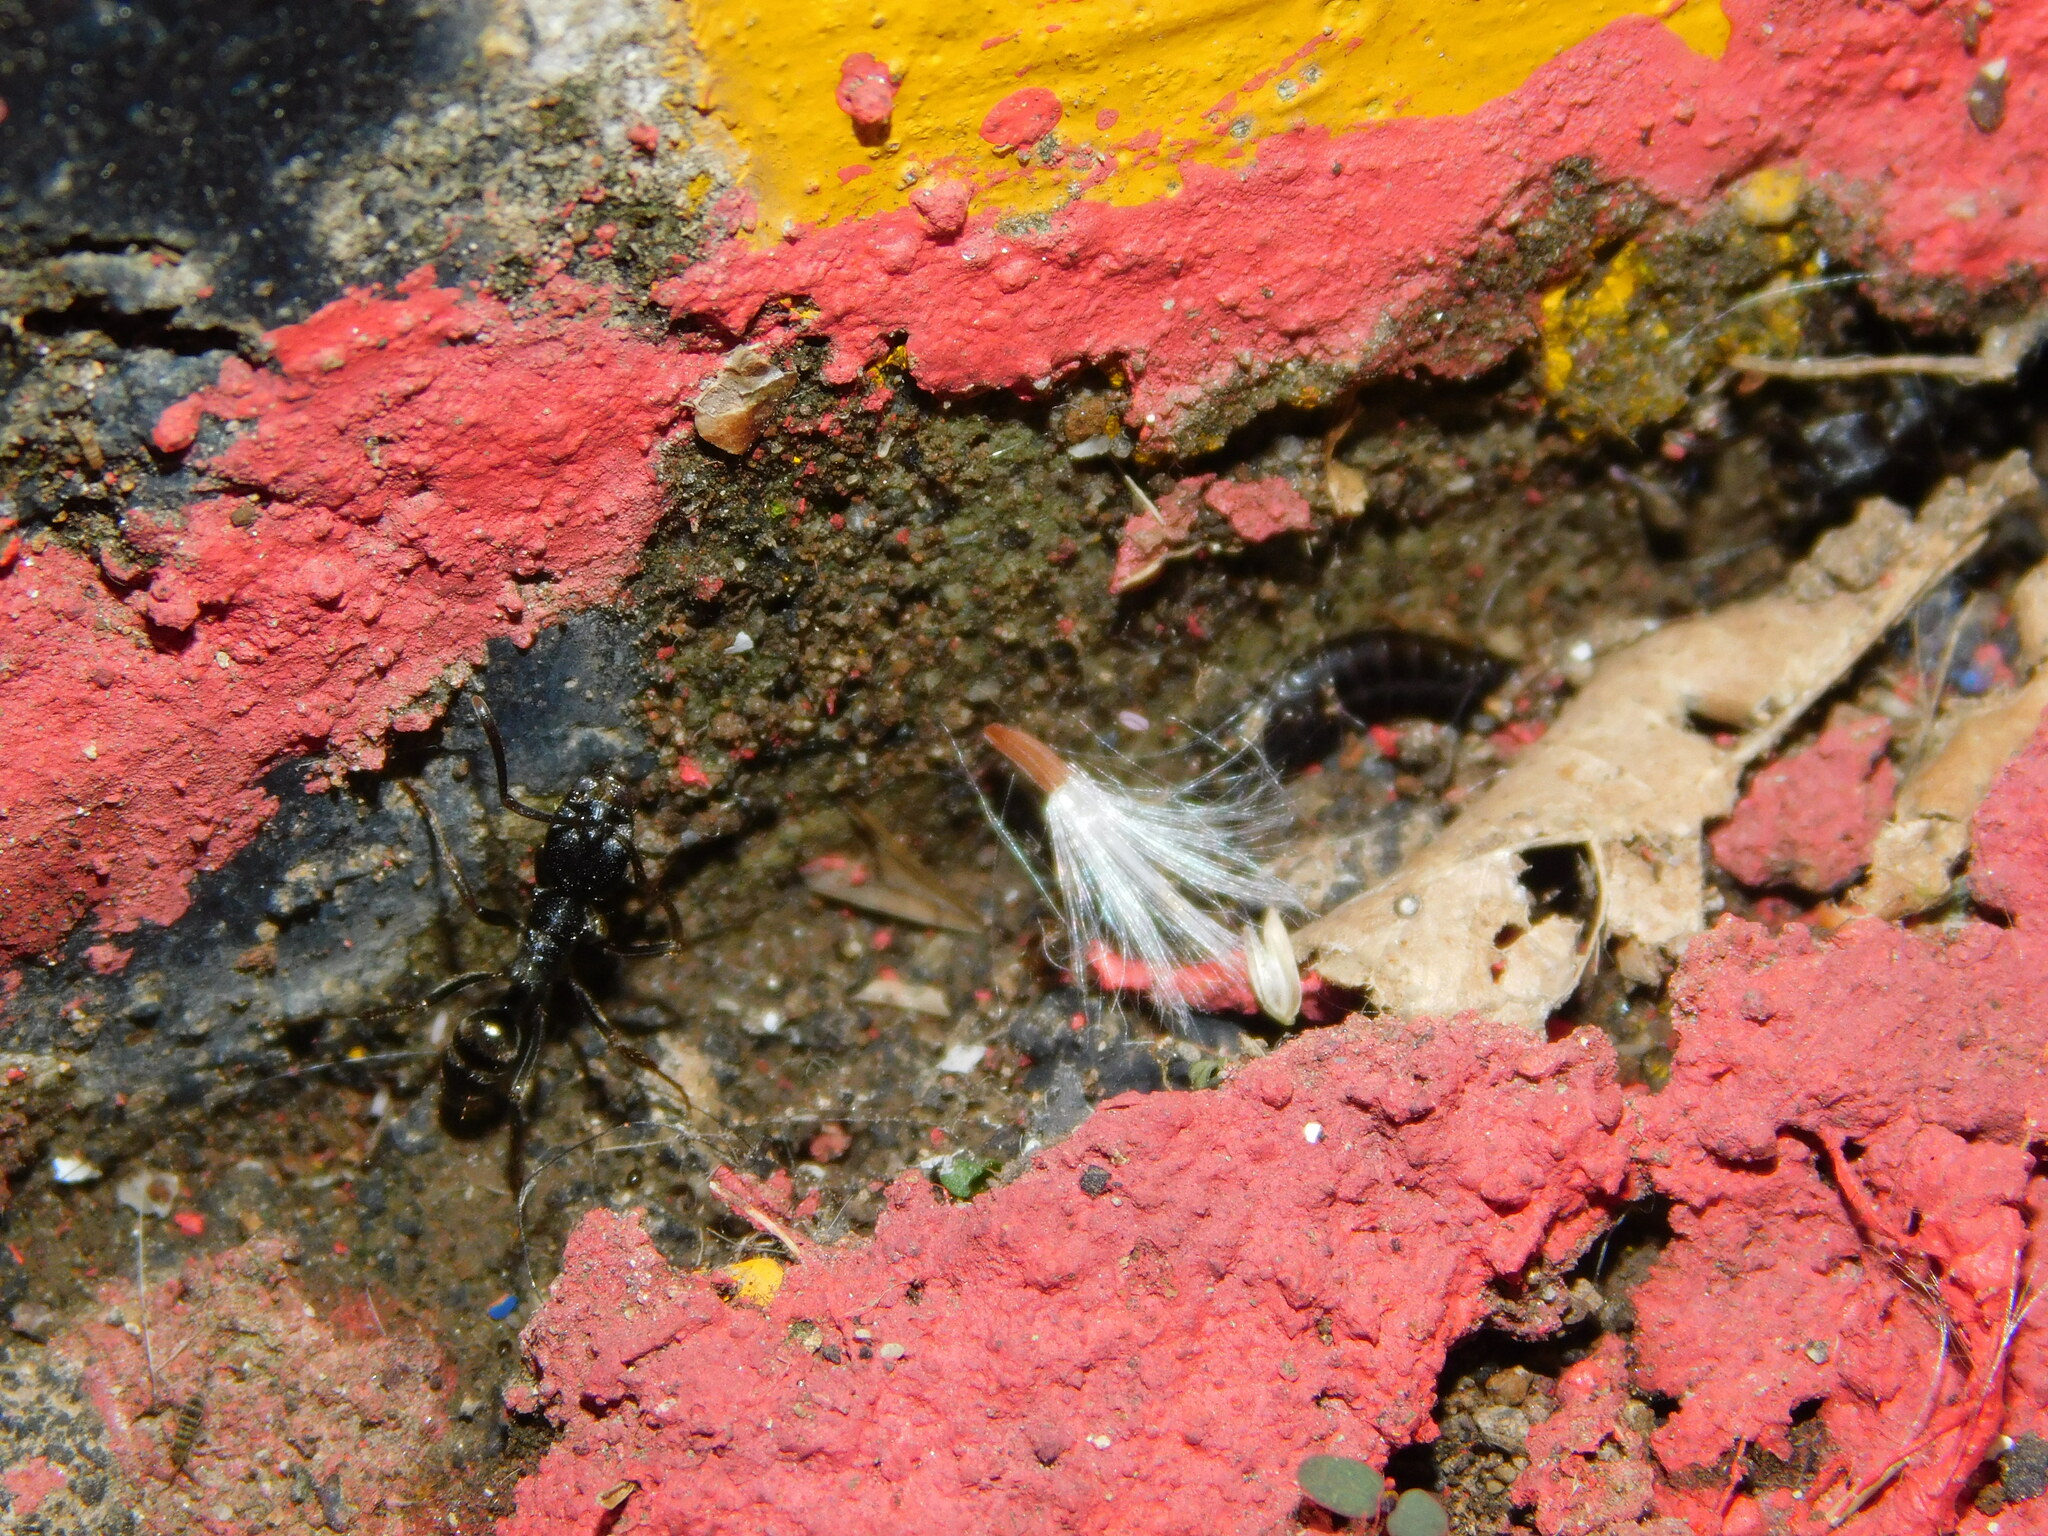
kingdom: Animalia
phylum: Arthropoda
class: Insecta
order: Hymenoptera
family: Formicidae
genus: Odontoponera
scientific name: Odontoponera denticulata
